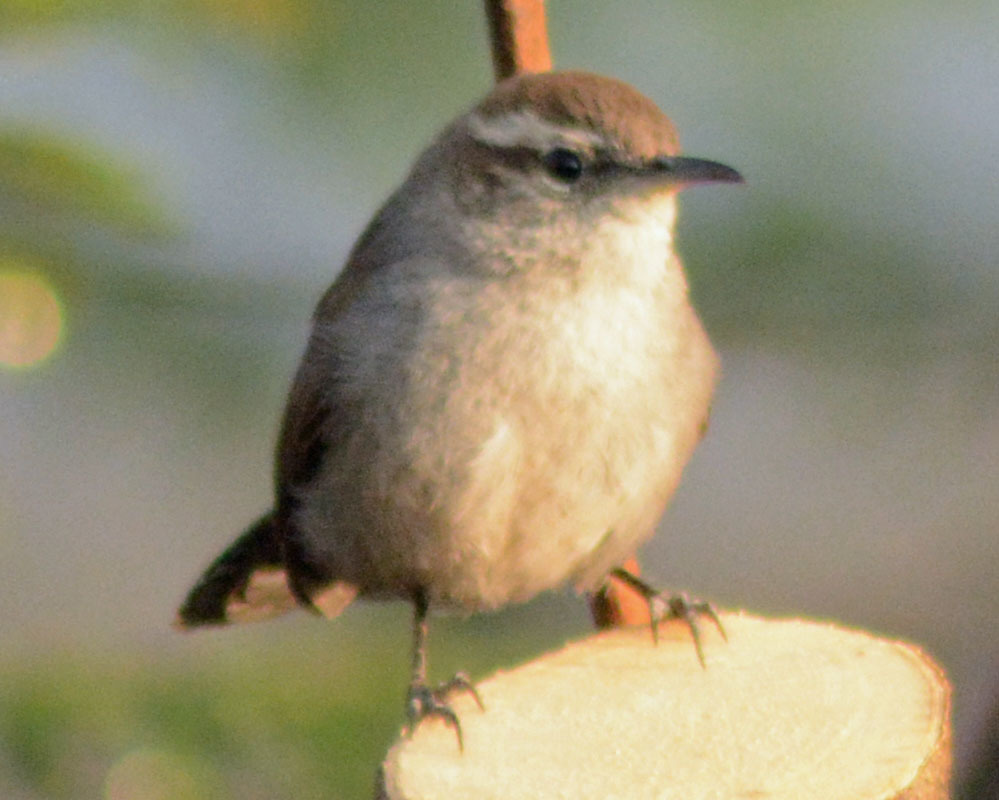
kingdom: Animalia
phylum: Chordata
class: Aves
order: Passeriformes
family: Troglodytidae
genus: Thryomanes
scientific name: Thryomanes bewickii
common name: Bewick's wren
